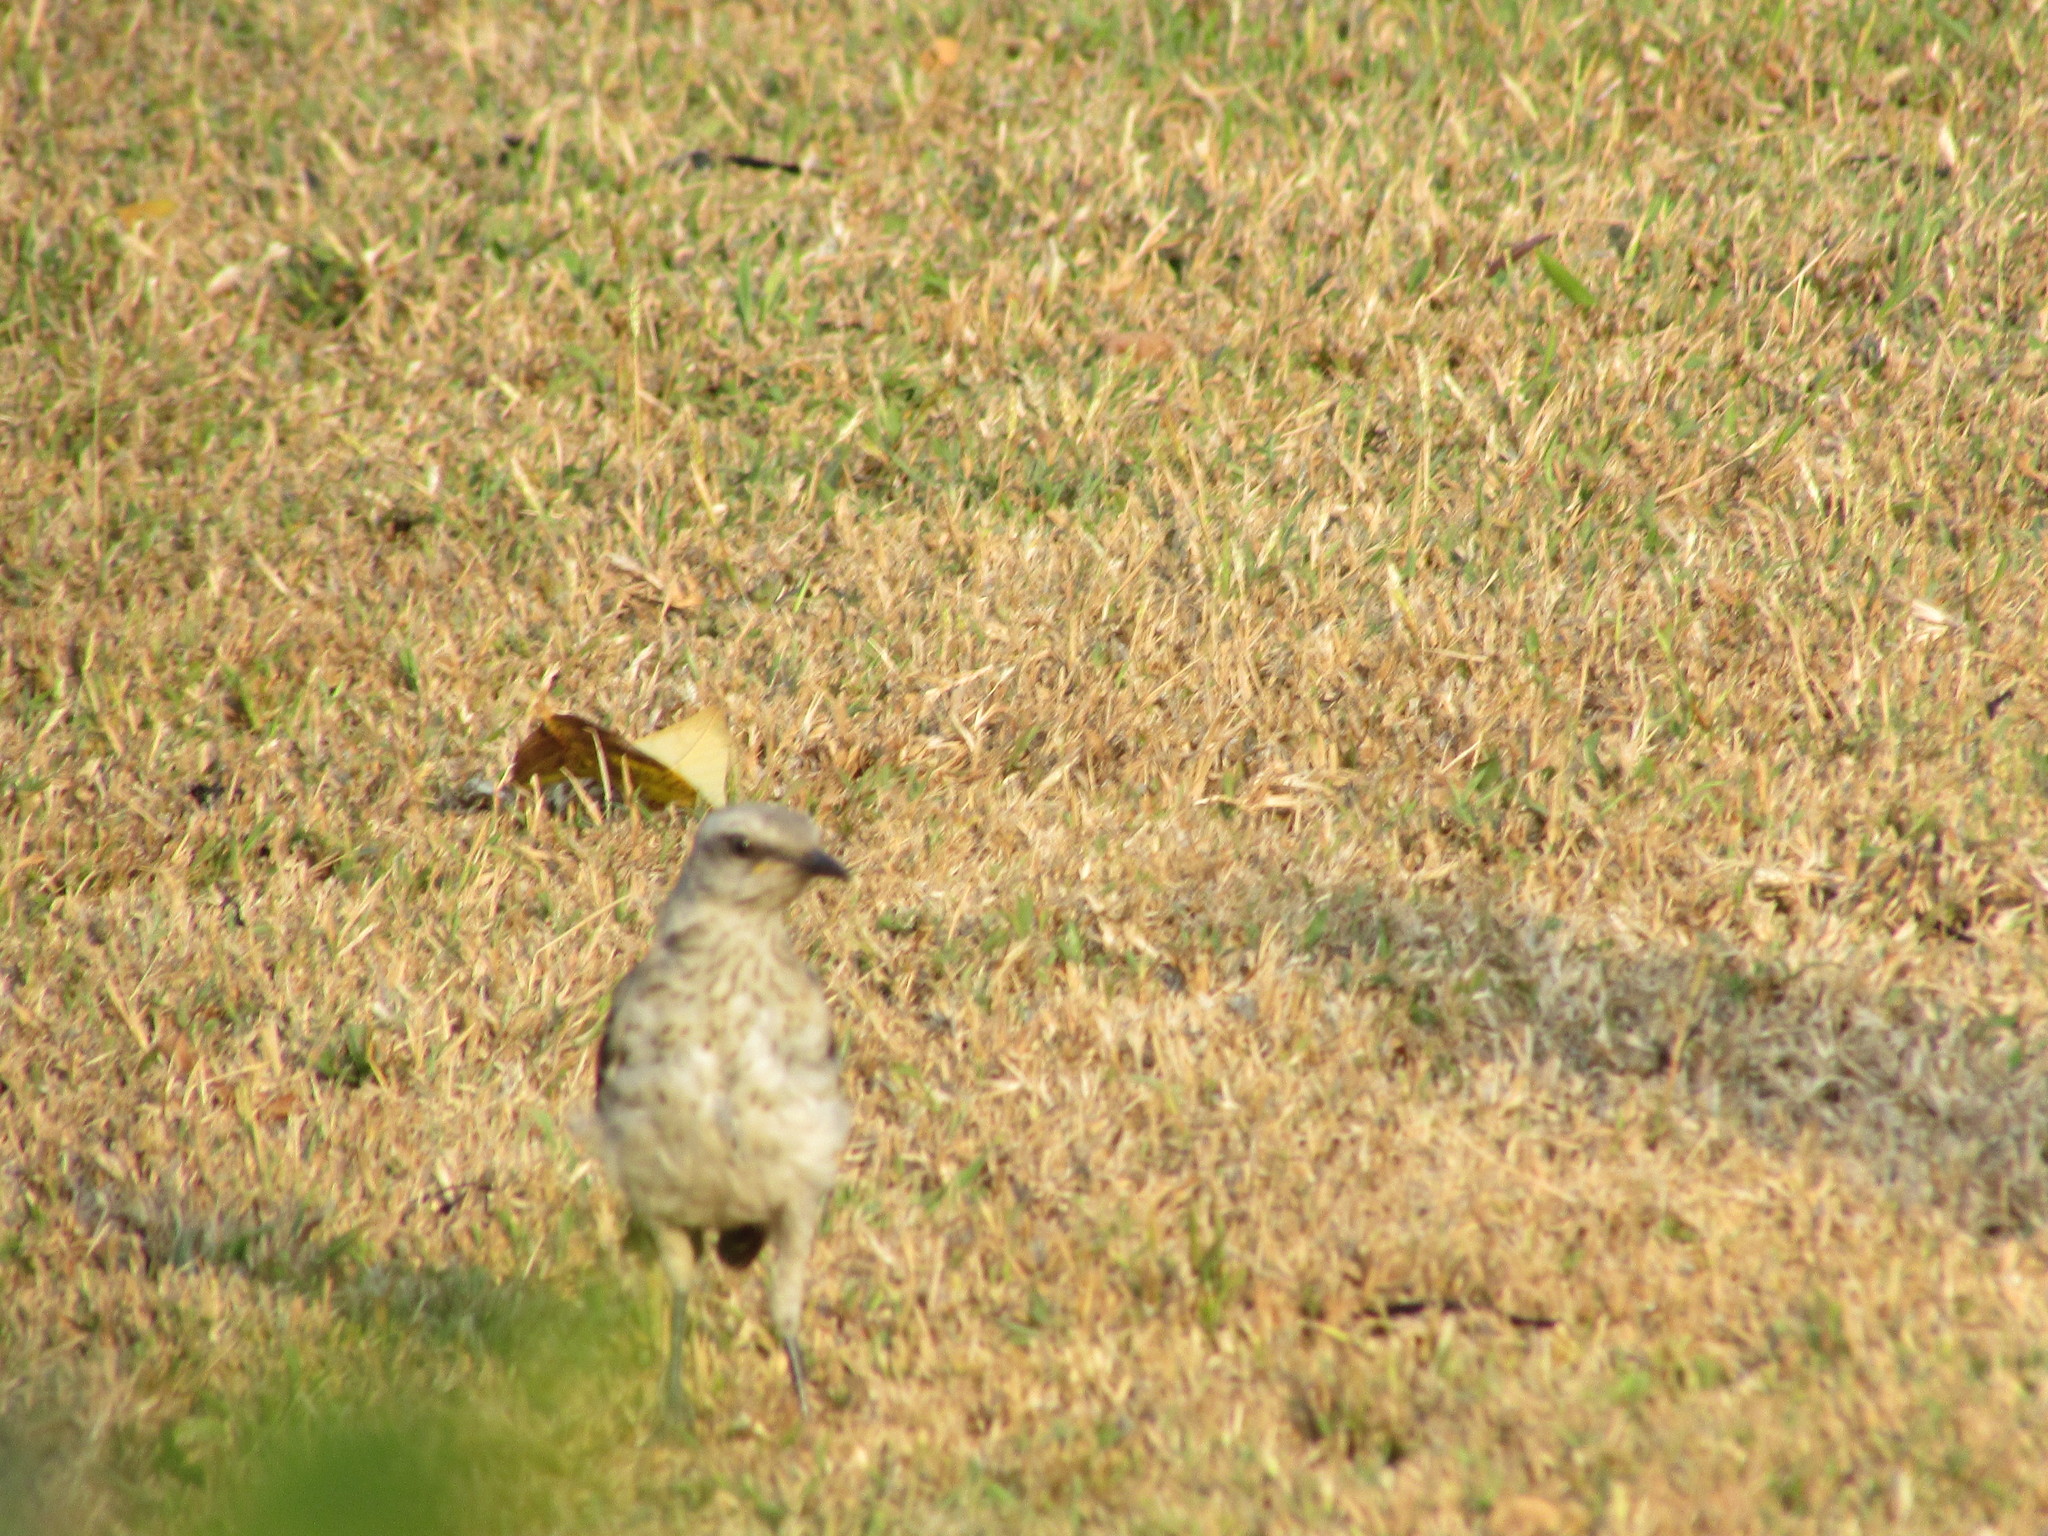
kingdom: Animalia
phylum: Chordata
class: Aves
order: Passeriformes
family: Mimidae
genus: Mimus
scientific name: Mimus gilvus
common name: Tropical mockingbird
